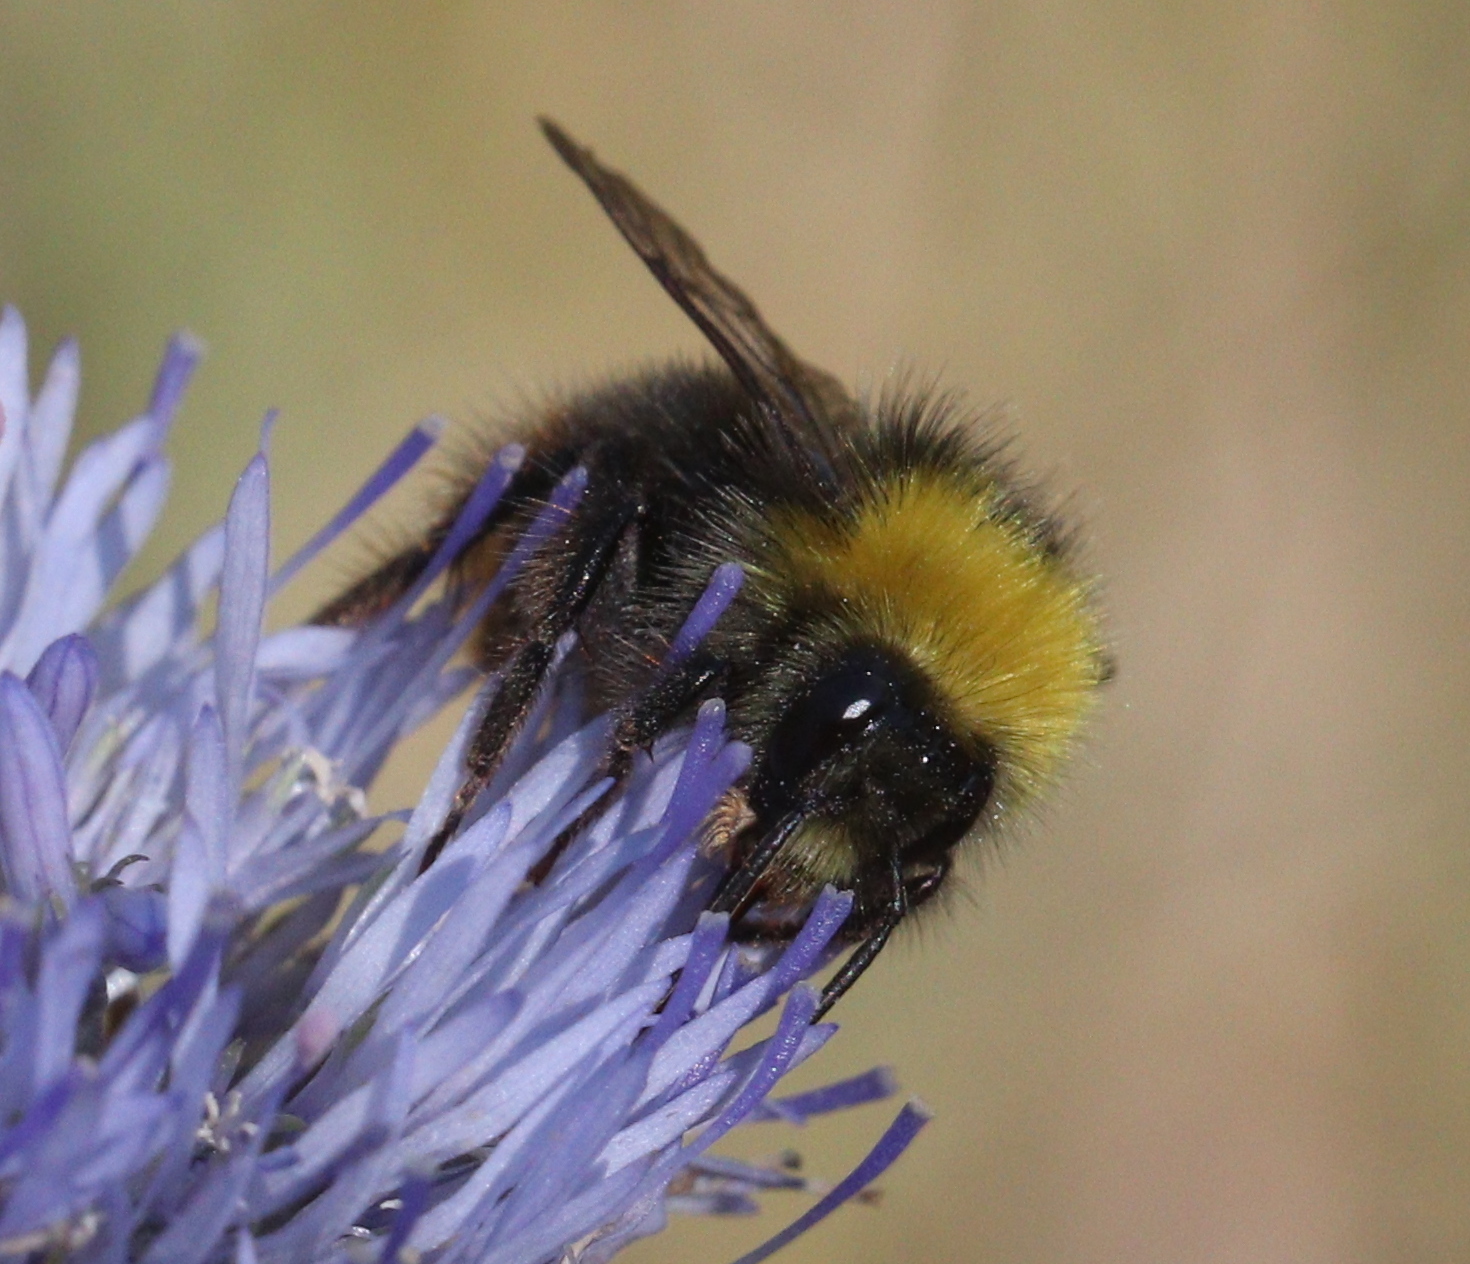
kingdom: Animalia
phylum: Arthropoda
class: Insecta
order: Hymenoptera
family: Apidae
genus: Bombus
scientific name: Bombus
